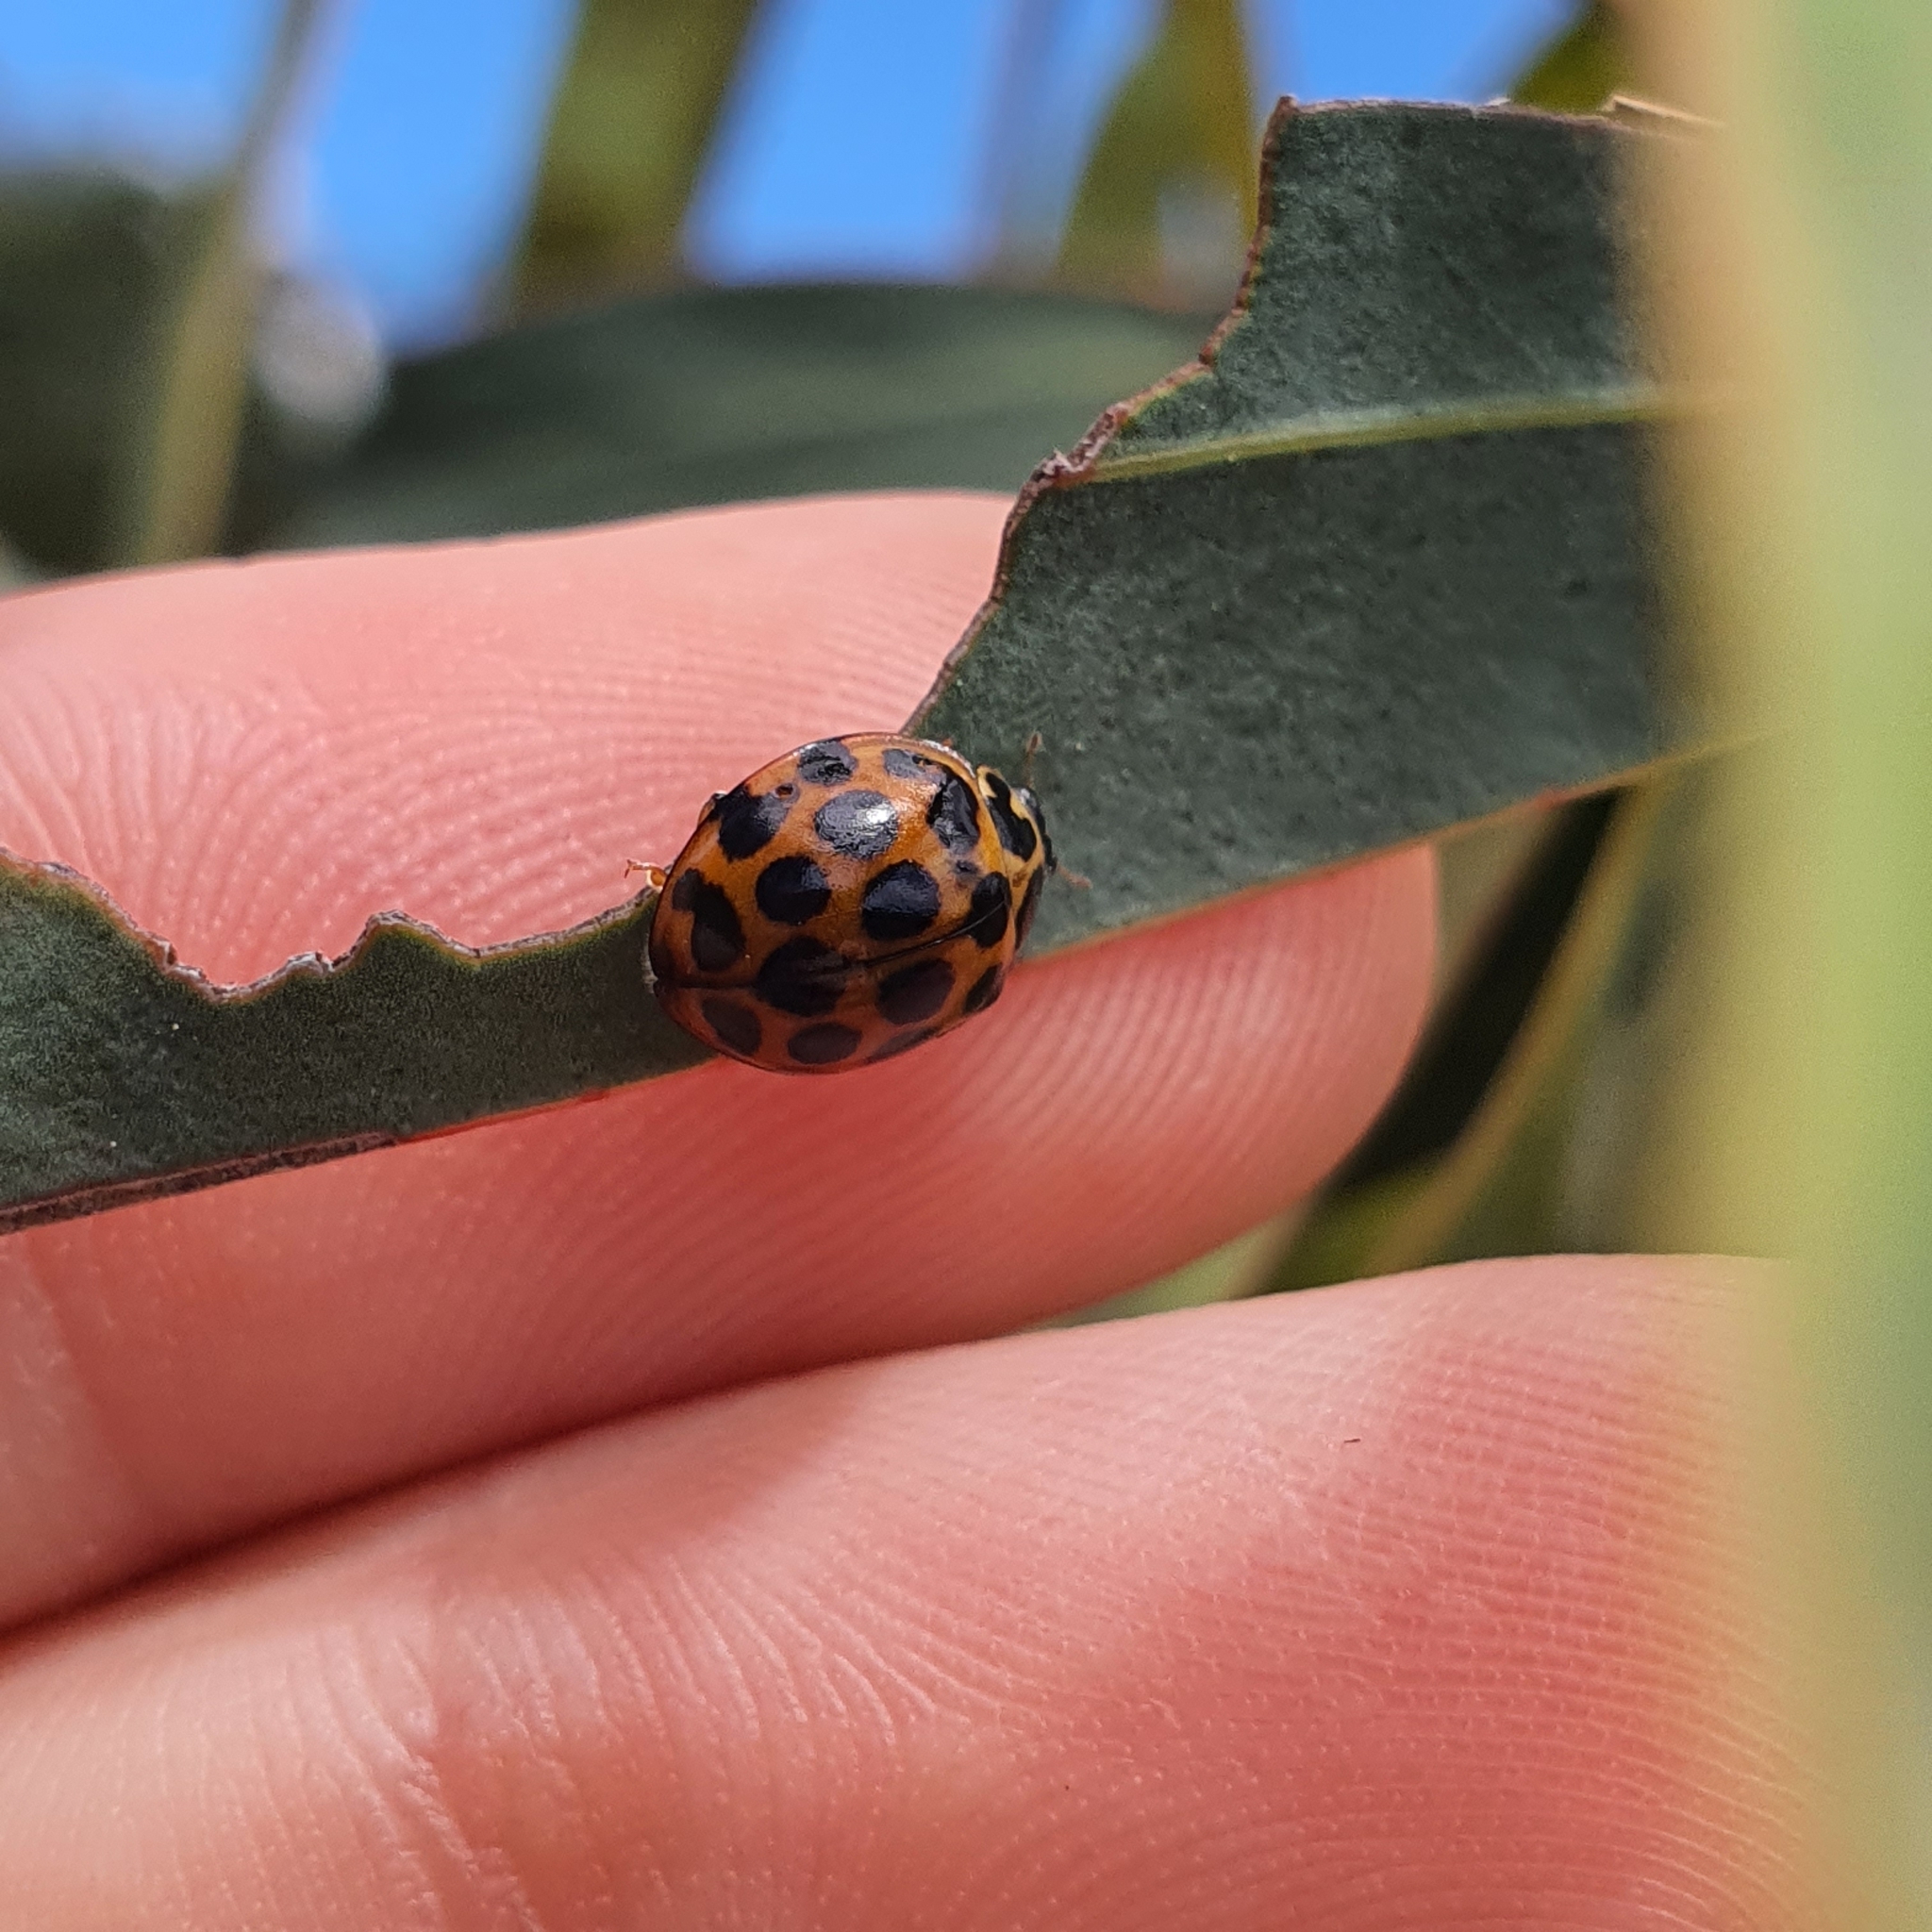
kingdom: Animalia
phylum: Arthropoda
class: Insecta
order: Coleoptera
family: Coccinellidae
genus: Harmonia
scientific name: Harmonia conformis
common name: Common spotted ladybird beetle
